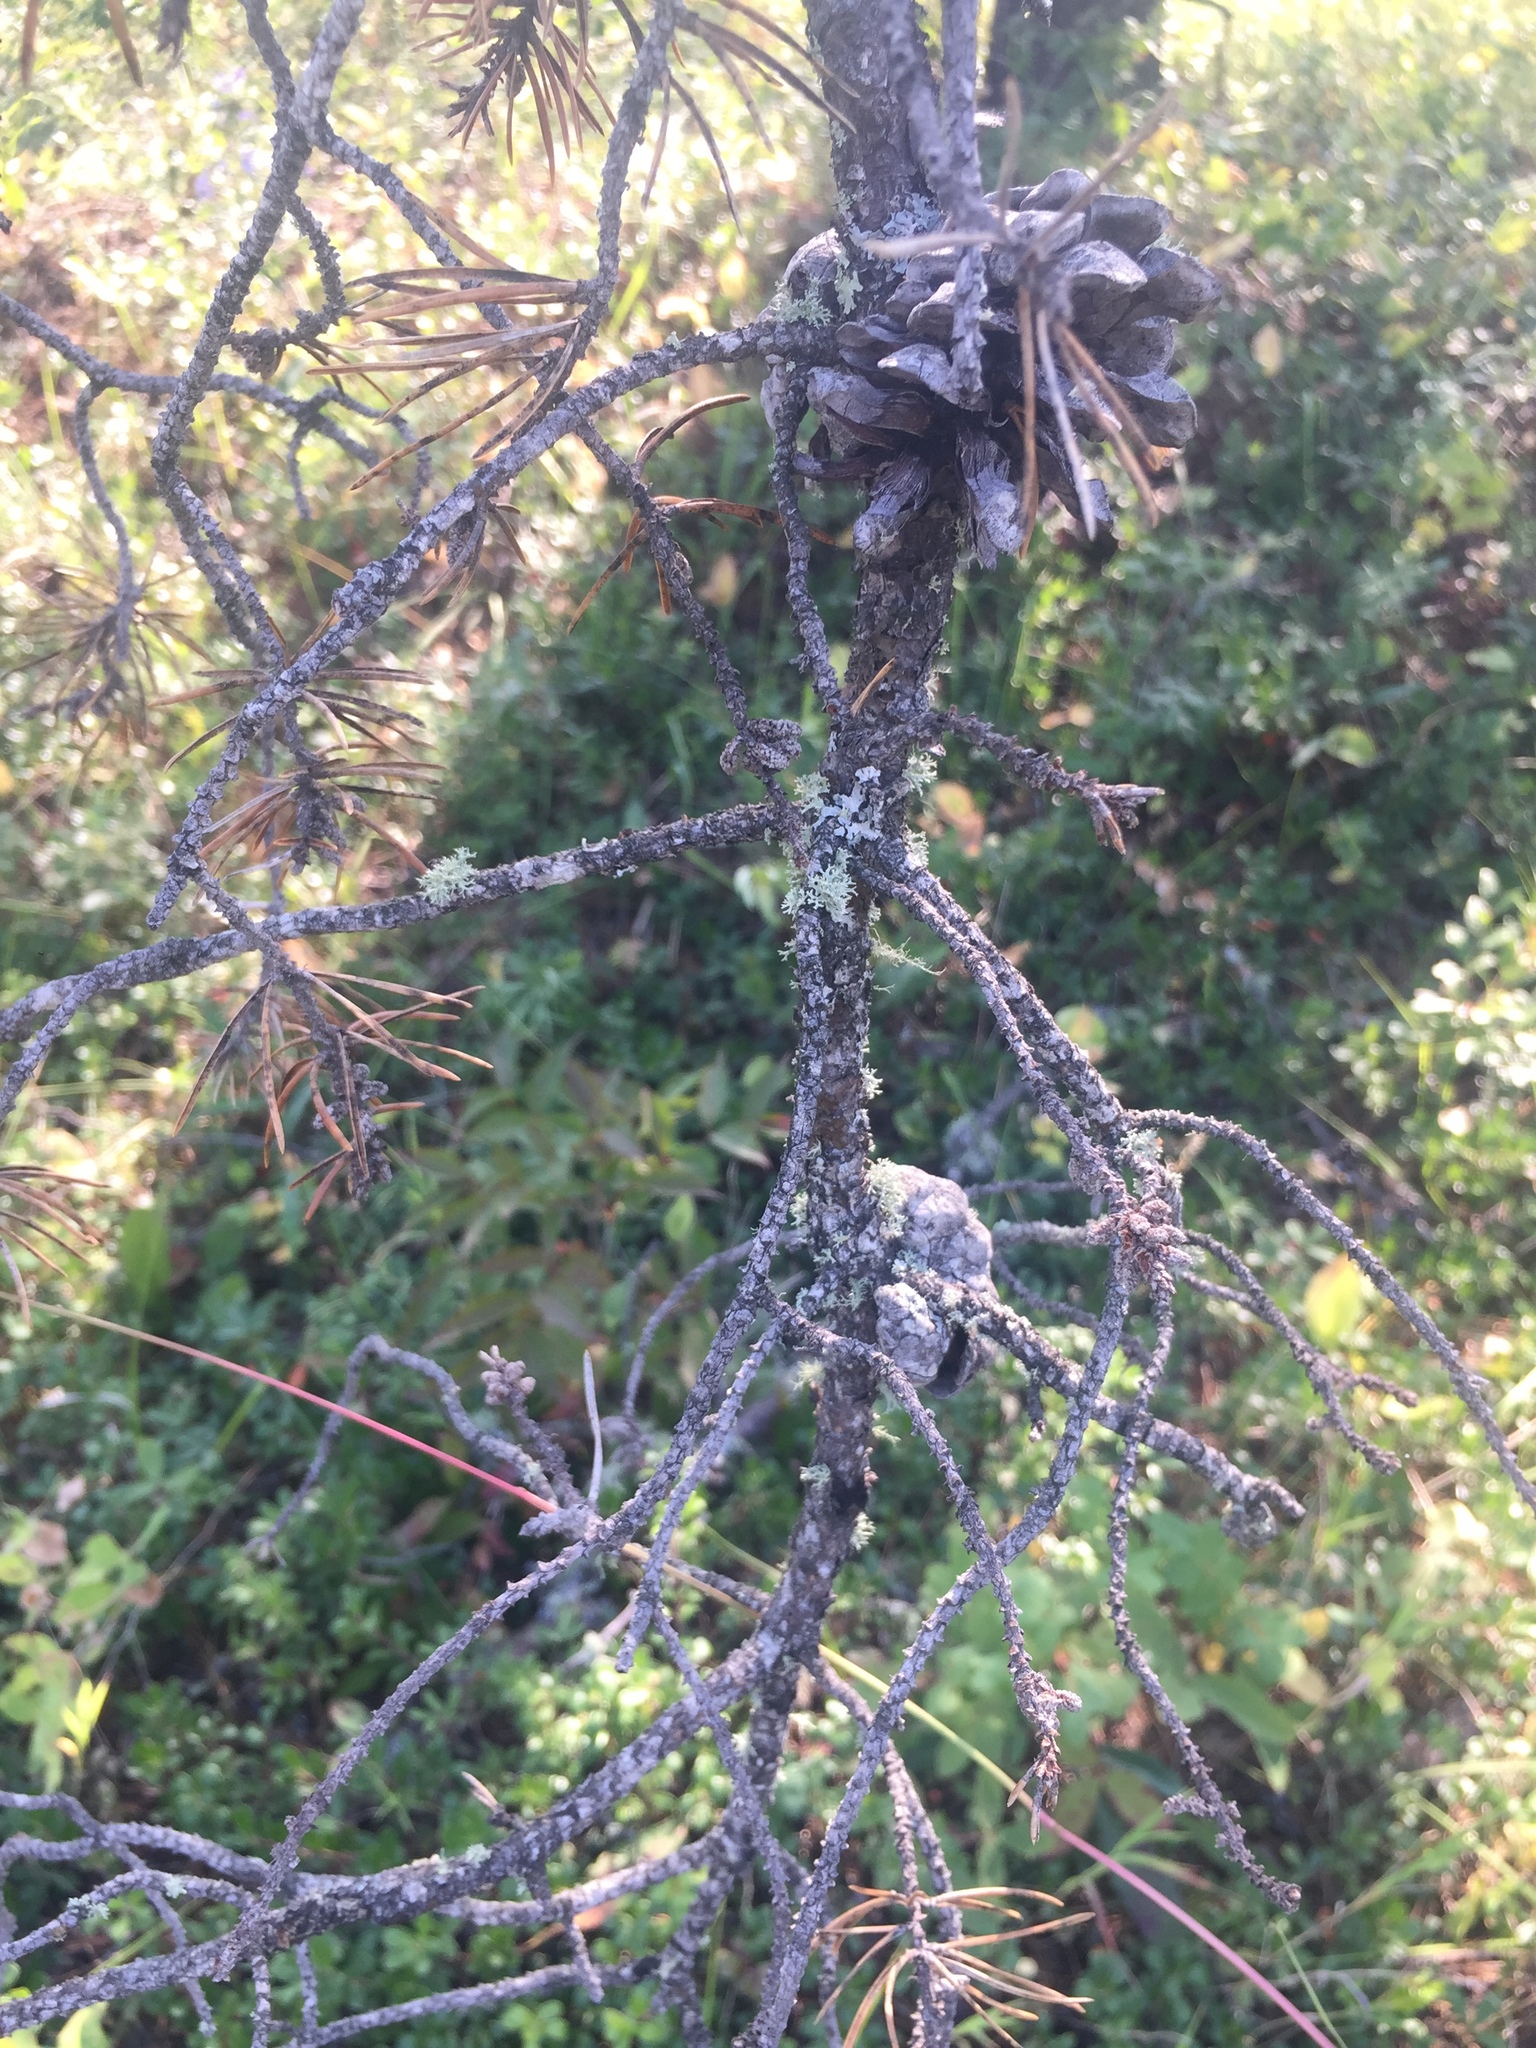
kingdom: Plantae
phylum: Tracheophyta
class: Pinopsida
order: Pinales
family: Pinaceae
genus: Pinus
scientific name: Pinus banksiana
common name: Jack pine
